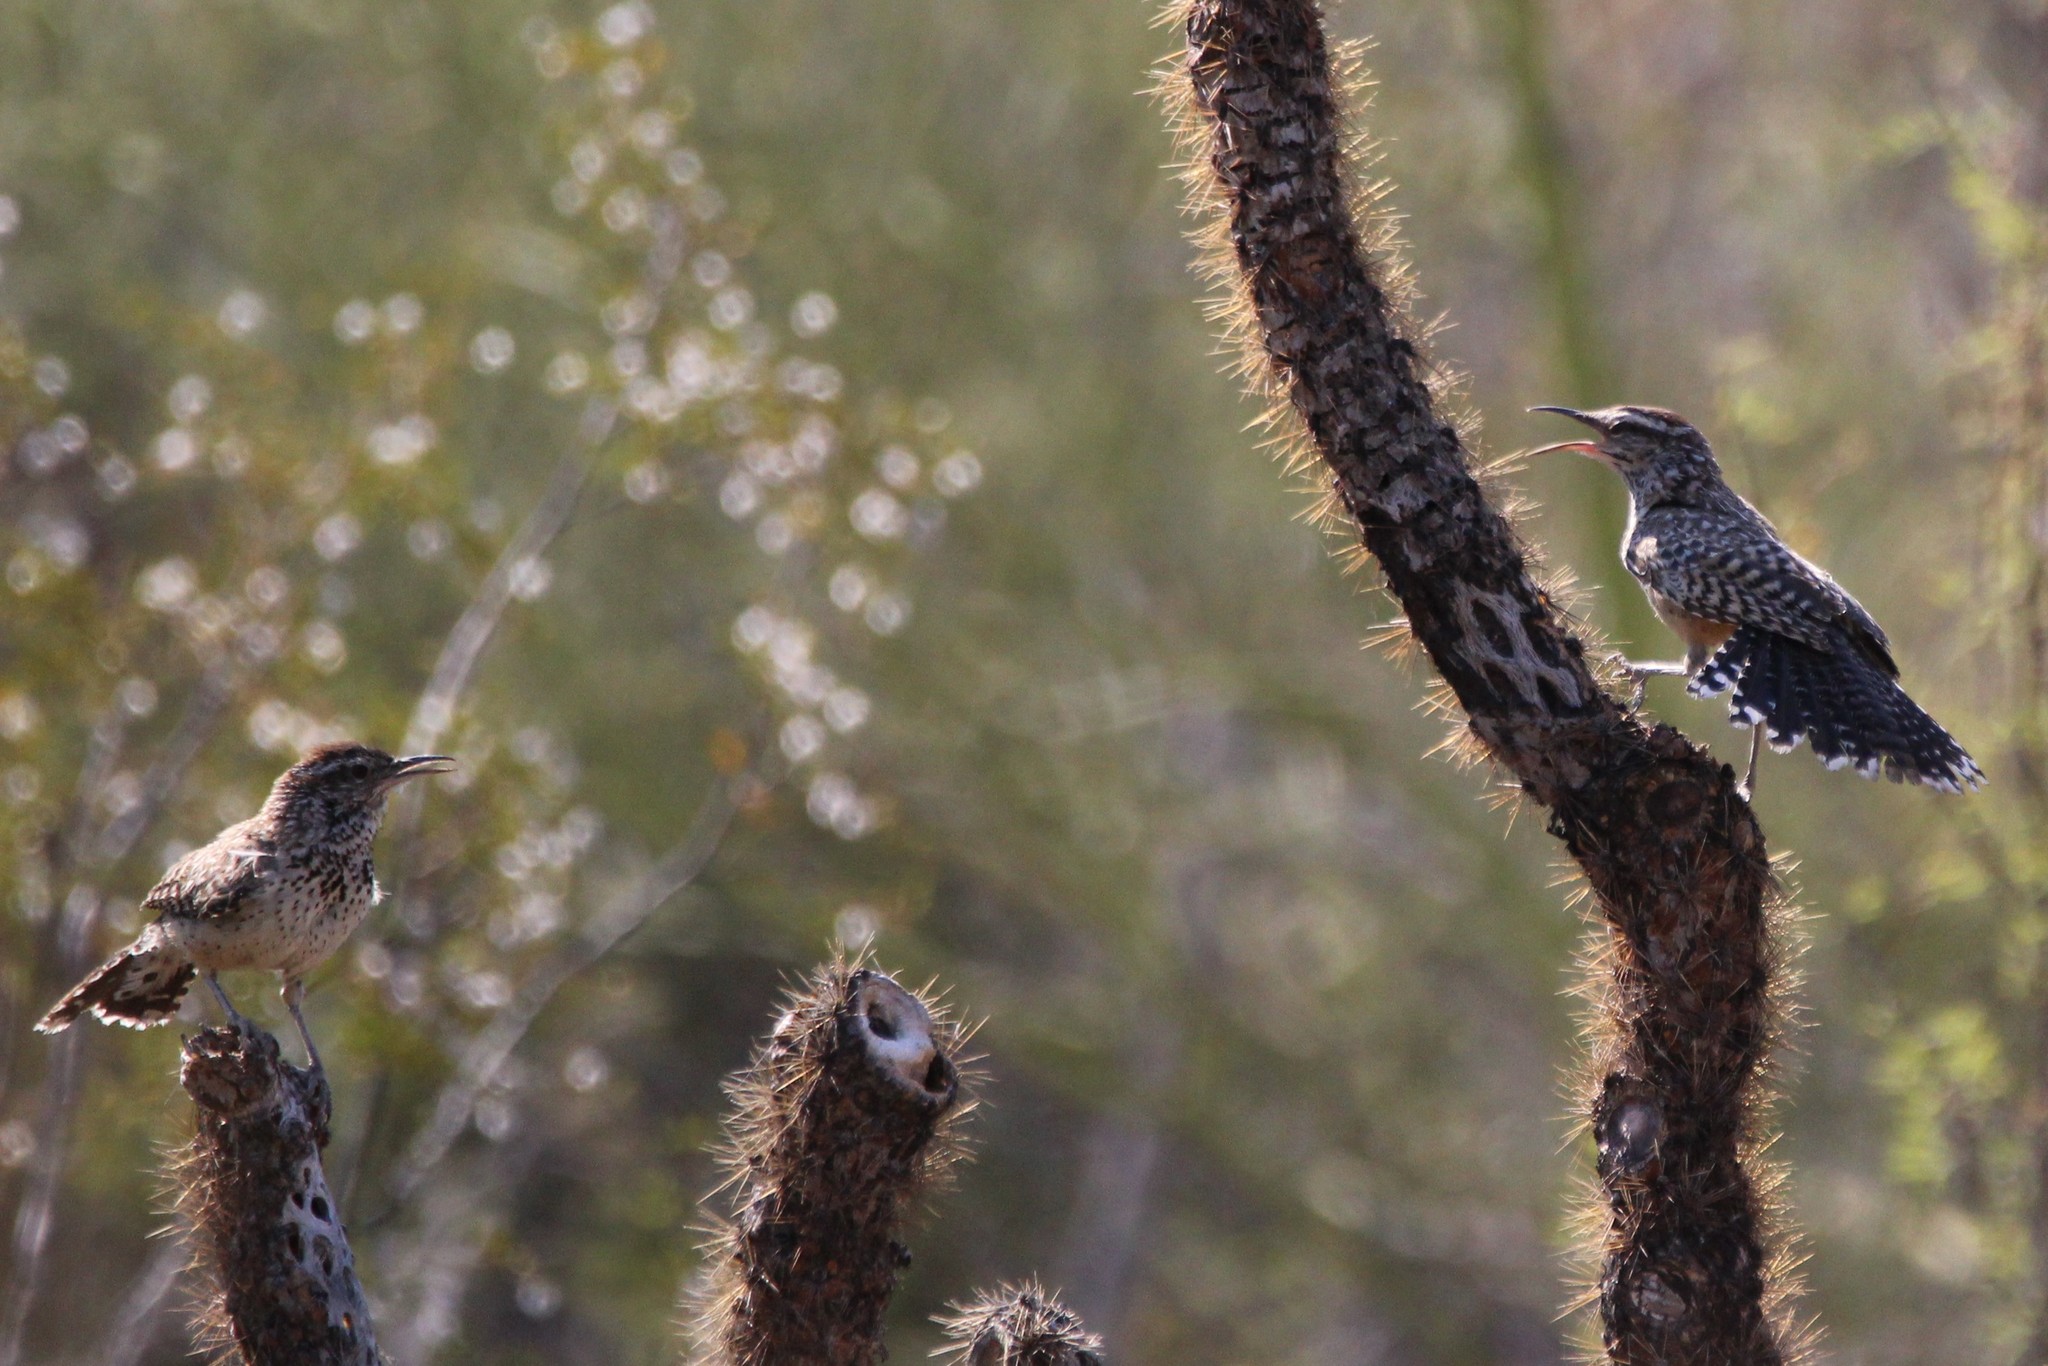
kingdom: Animalia
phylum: Chordata
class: Aves
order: Passeriformes
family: Troglodytidae
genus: Campylorhynchus
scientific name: Campylorhynchus brunneicapillus
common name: Cactus wren
